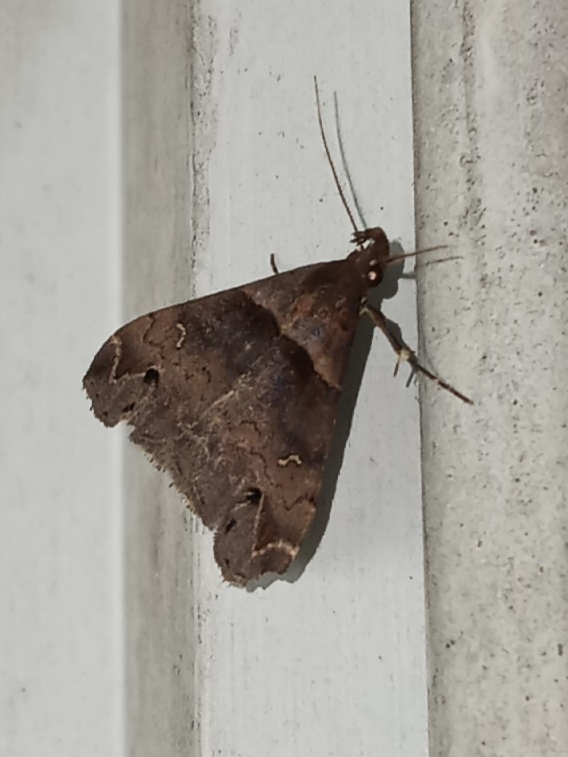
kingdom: Animalia
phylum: Arthropoda
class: Insecta
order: Lepidoptera
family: Erebidae
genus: Lascoria
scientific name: Lascoria ambigualis
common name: Ambiguous moth
